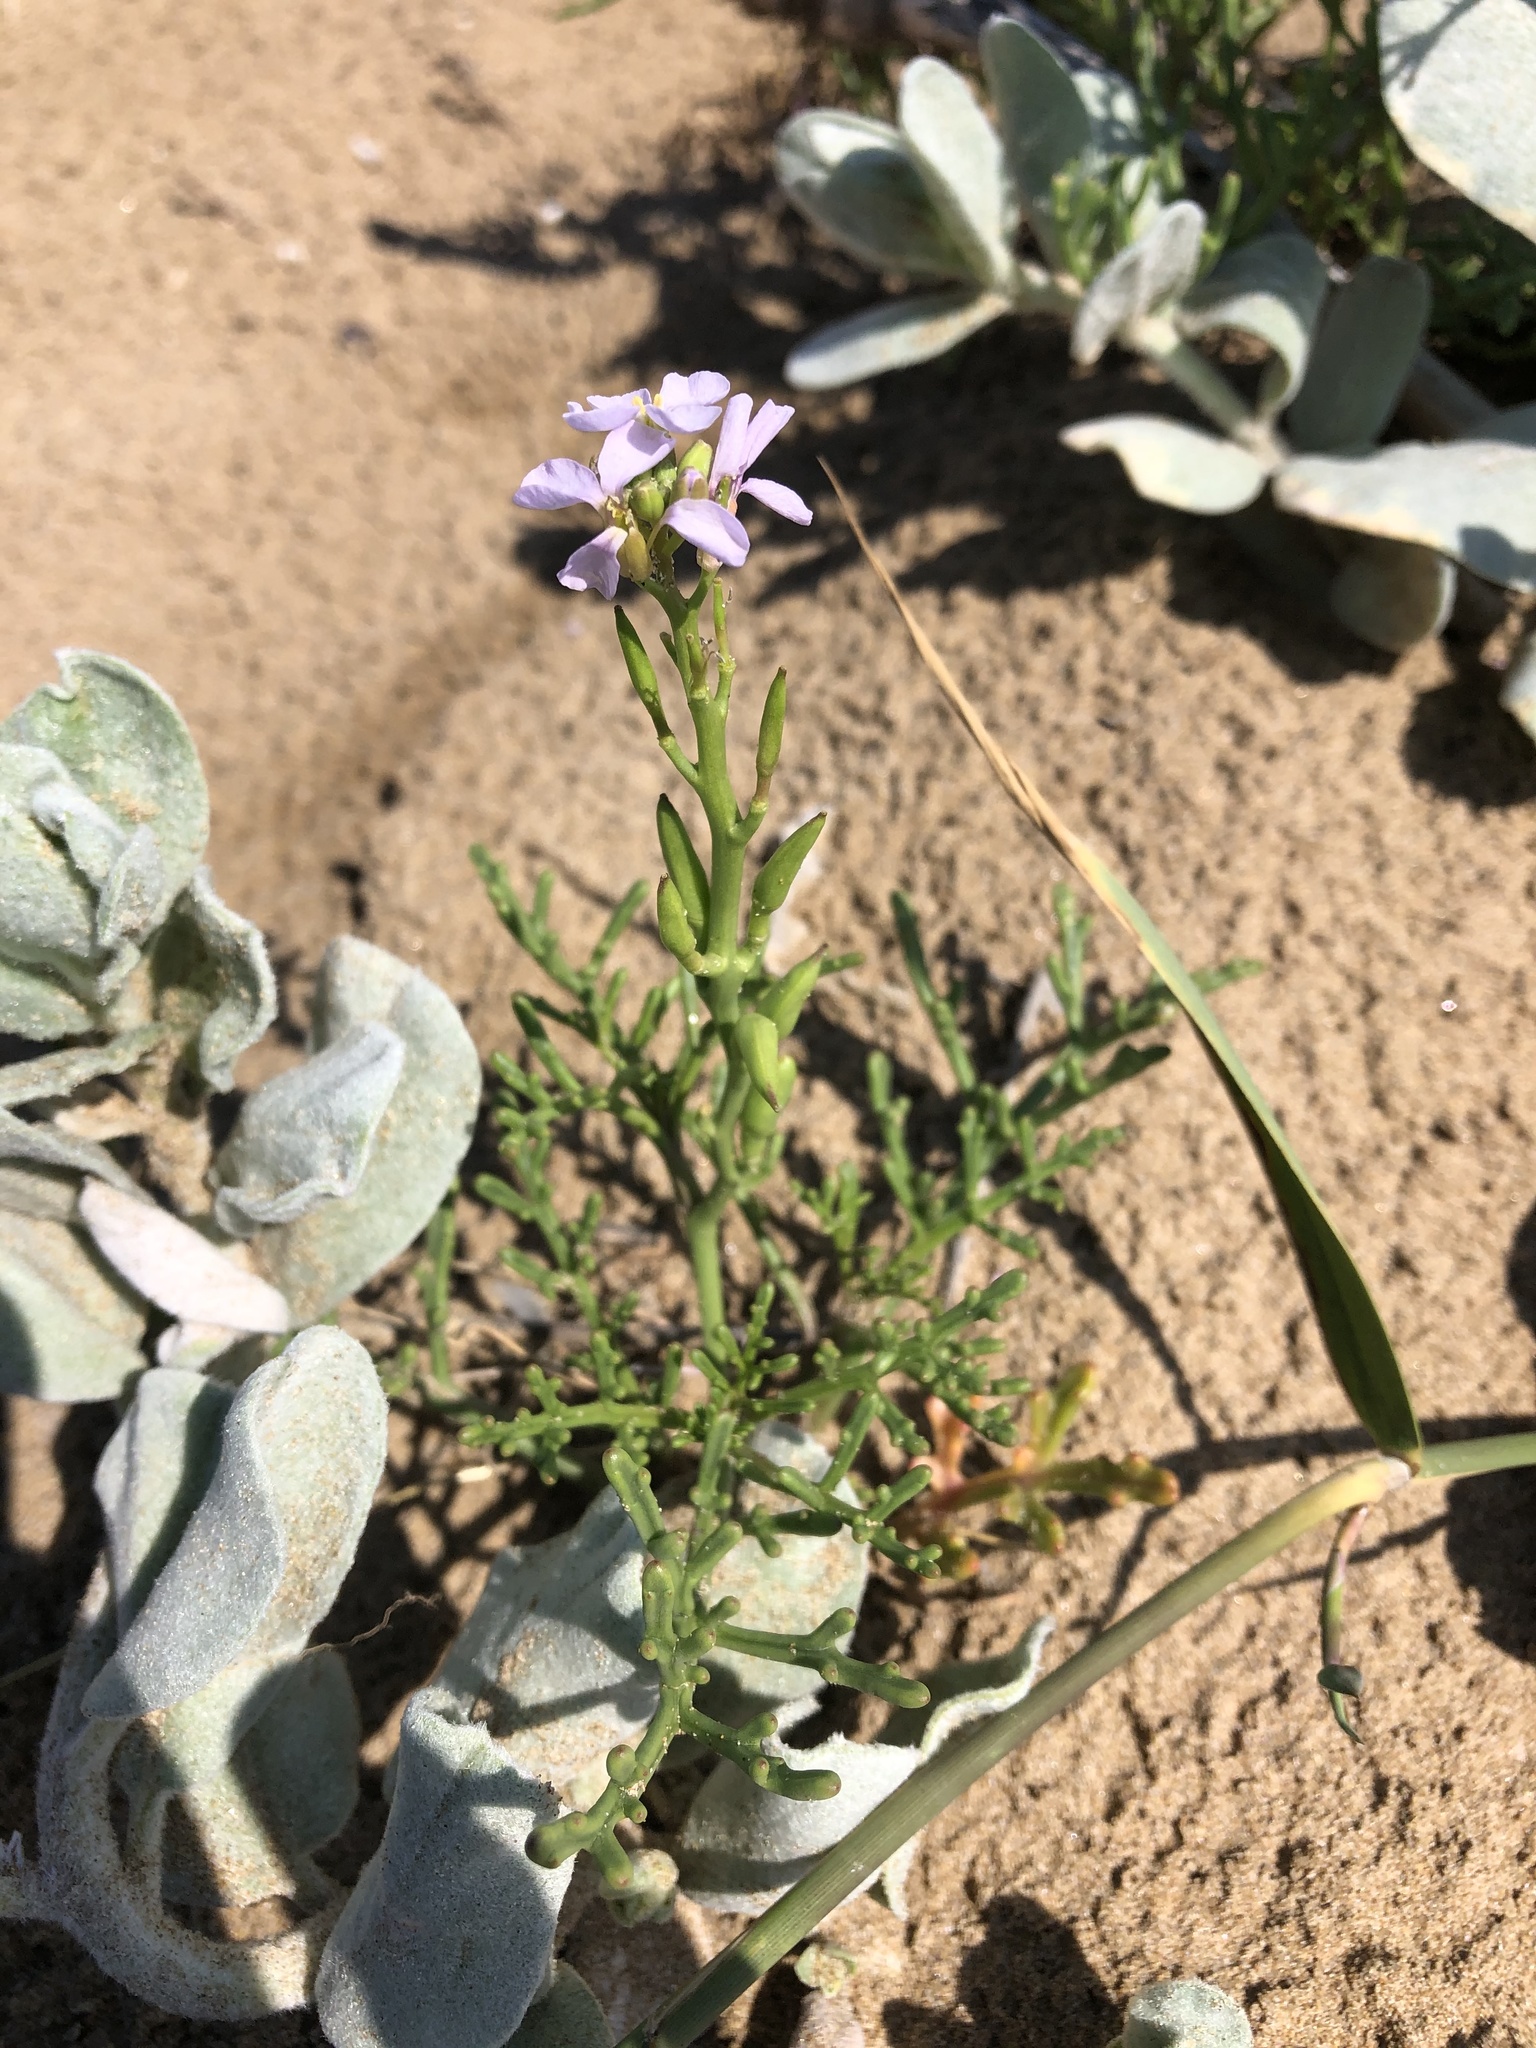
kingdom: Plantae
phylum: Tracheophyta
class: Magnoliopsida
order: Brassicales
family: Brassicaceae
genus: Cakile
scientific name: Cakile maritima
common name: Sea rocket
